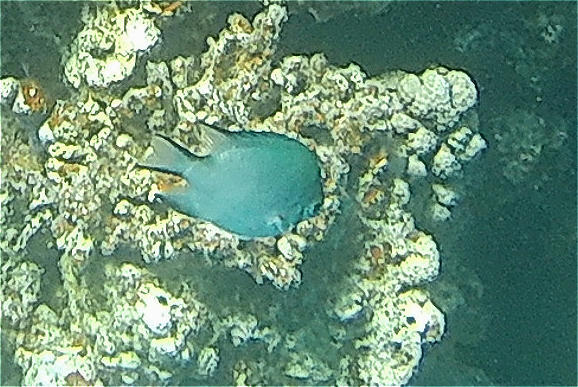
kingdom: Animalia
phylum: Chordata
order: Perciformes
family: Pomacentridae
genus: Amblyglyphidodon
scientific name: Amblyglyphidodon indicus
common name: Maldives damselfish
